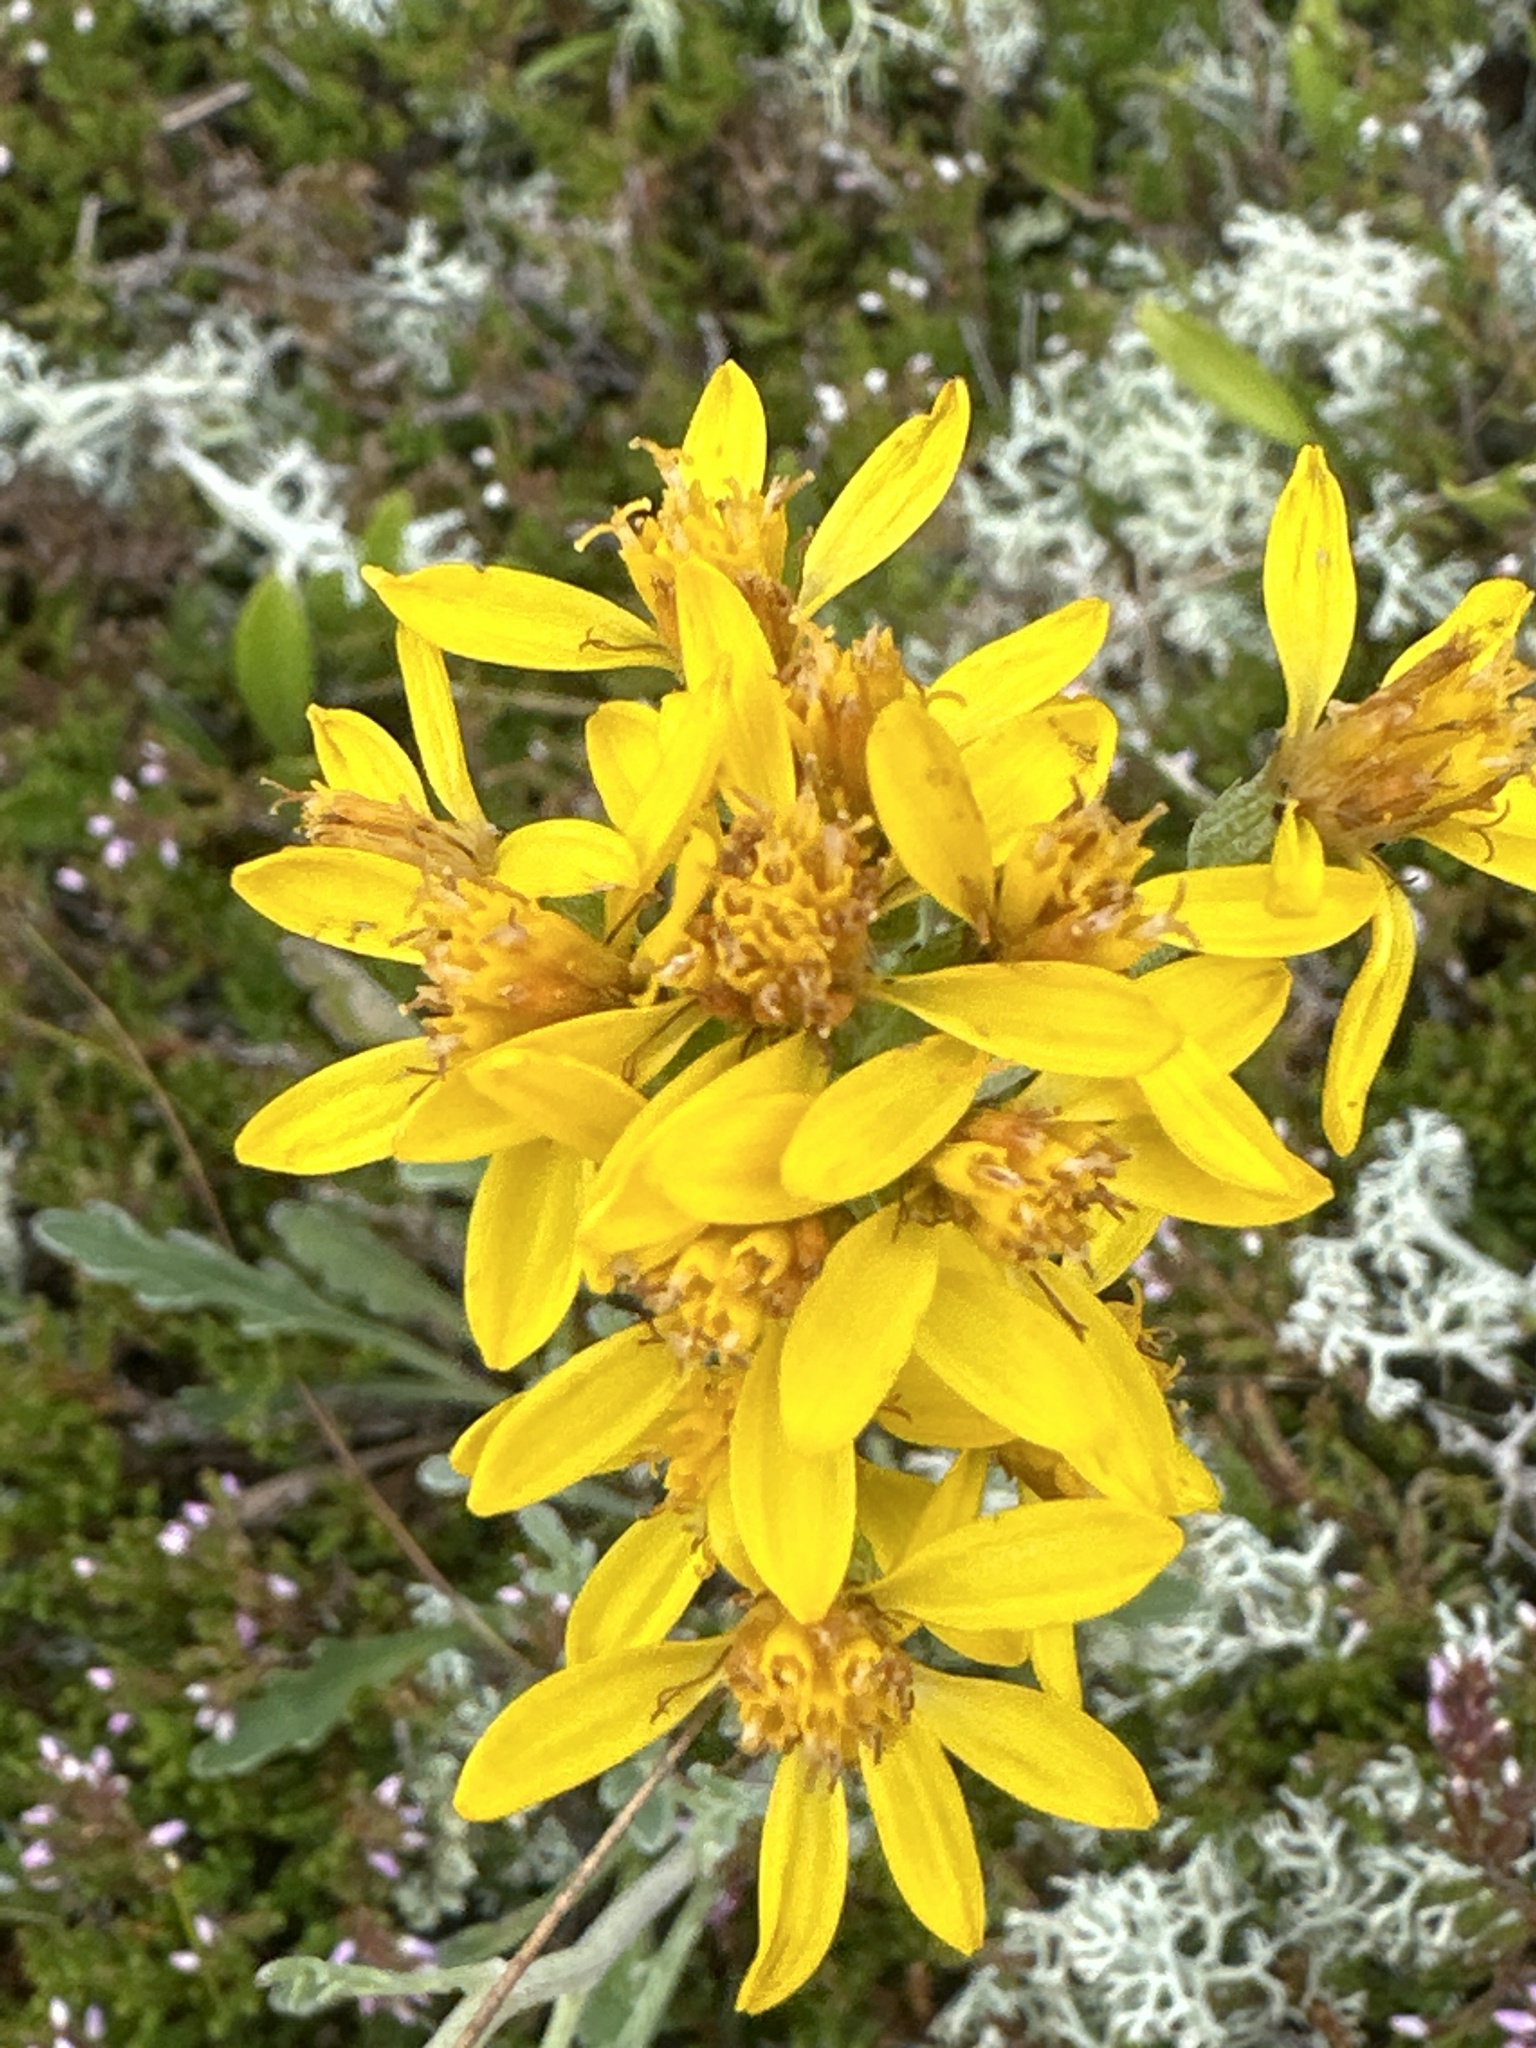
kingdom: Plantae
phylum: Tracheophyta
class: Magnoliopsida
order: Asterales
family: Asteraceae
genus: Jacobaea
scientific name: Jacobaea carniolica
